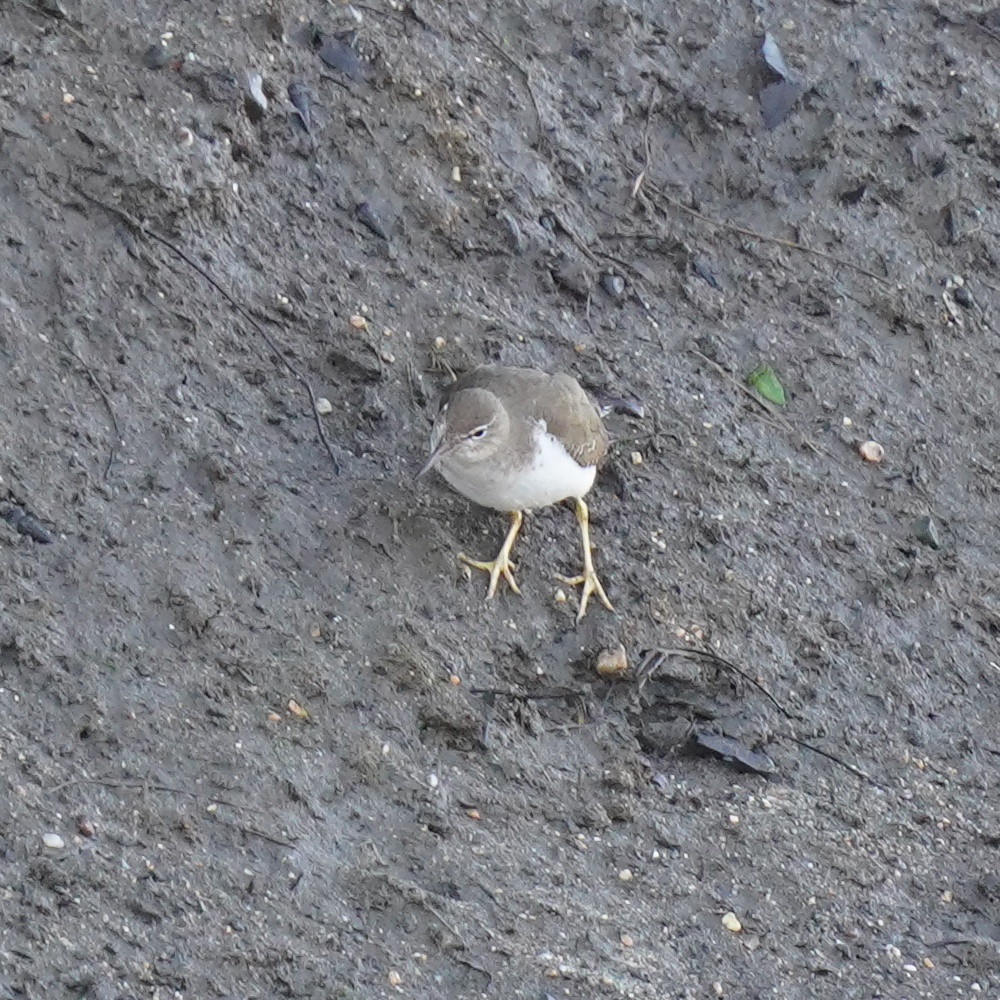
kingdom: Animalia
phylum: Chordata
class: Aves
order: Charadriiformes
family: Scolopacidae
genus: Actitis
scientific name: Actitis macularius
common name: Spotted sandpiper
